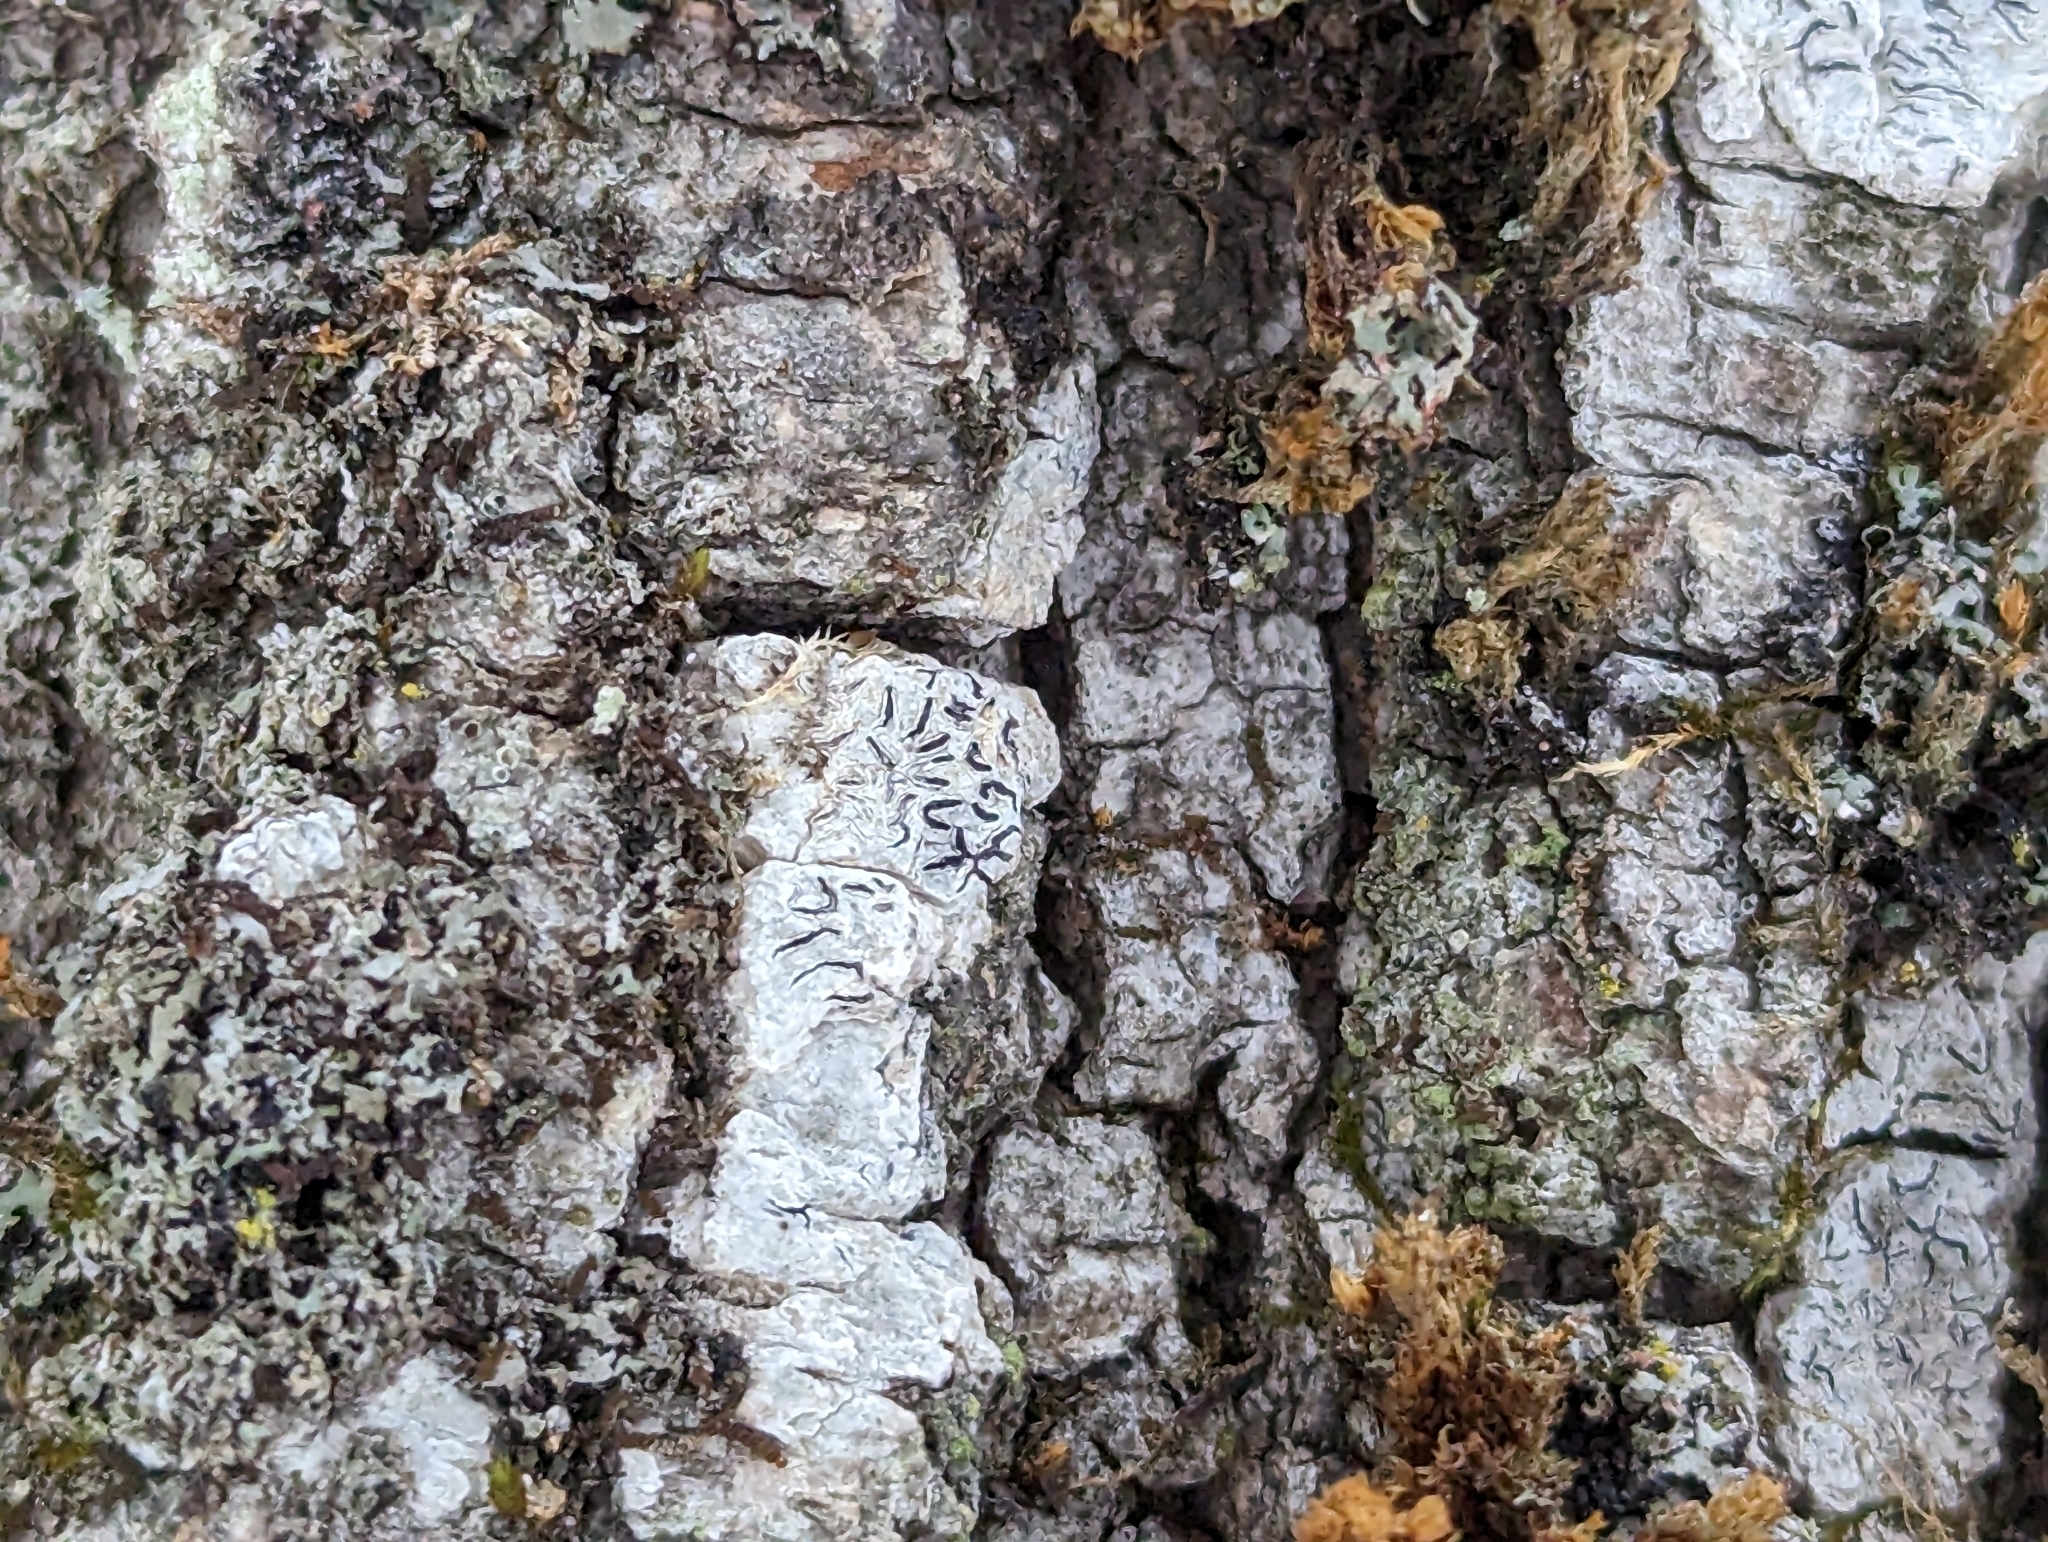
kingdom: Fungi
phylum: Ascomycota
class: Lecanoromycetes
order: Ostropales
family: Graphidaceae
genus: Graphis
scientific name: Graphis scripta
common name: Script lichen
